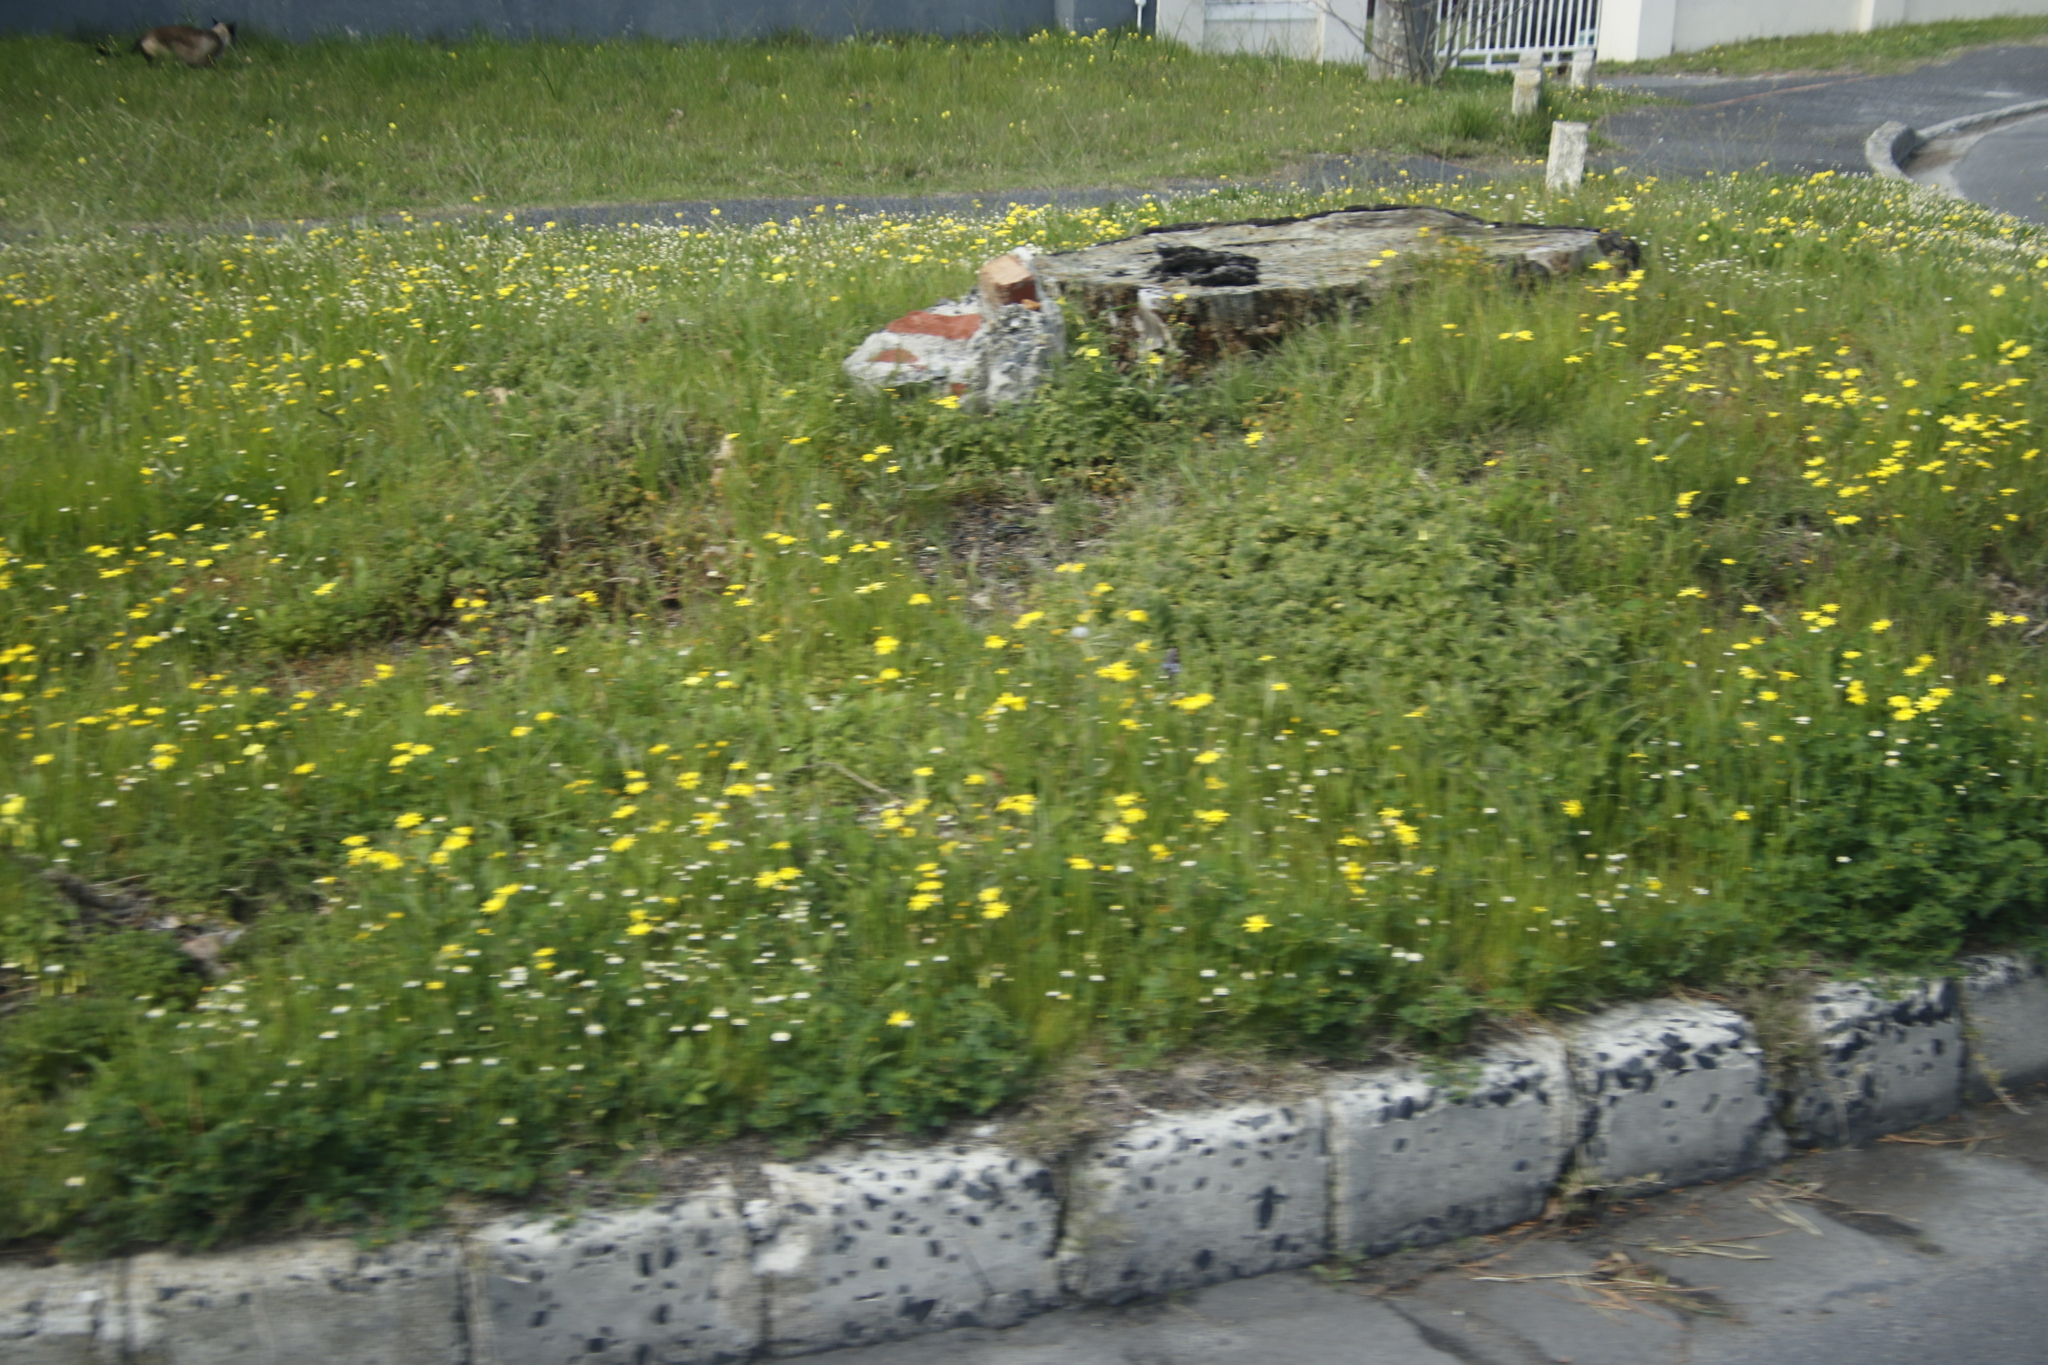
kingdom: Plantae
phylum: Tracheophyta
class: Magnoliopsida
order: Oxalidales
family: Oxalidaceae
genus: Oxalis
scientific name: Oxalis pes-caprae
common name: Bermuda-buttercup
